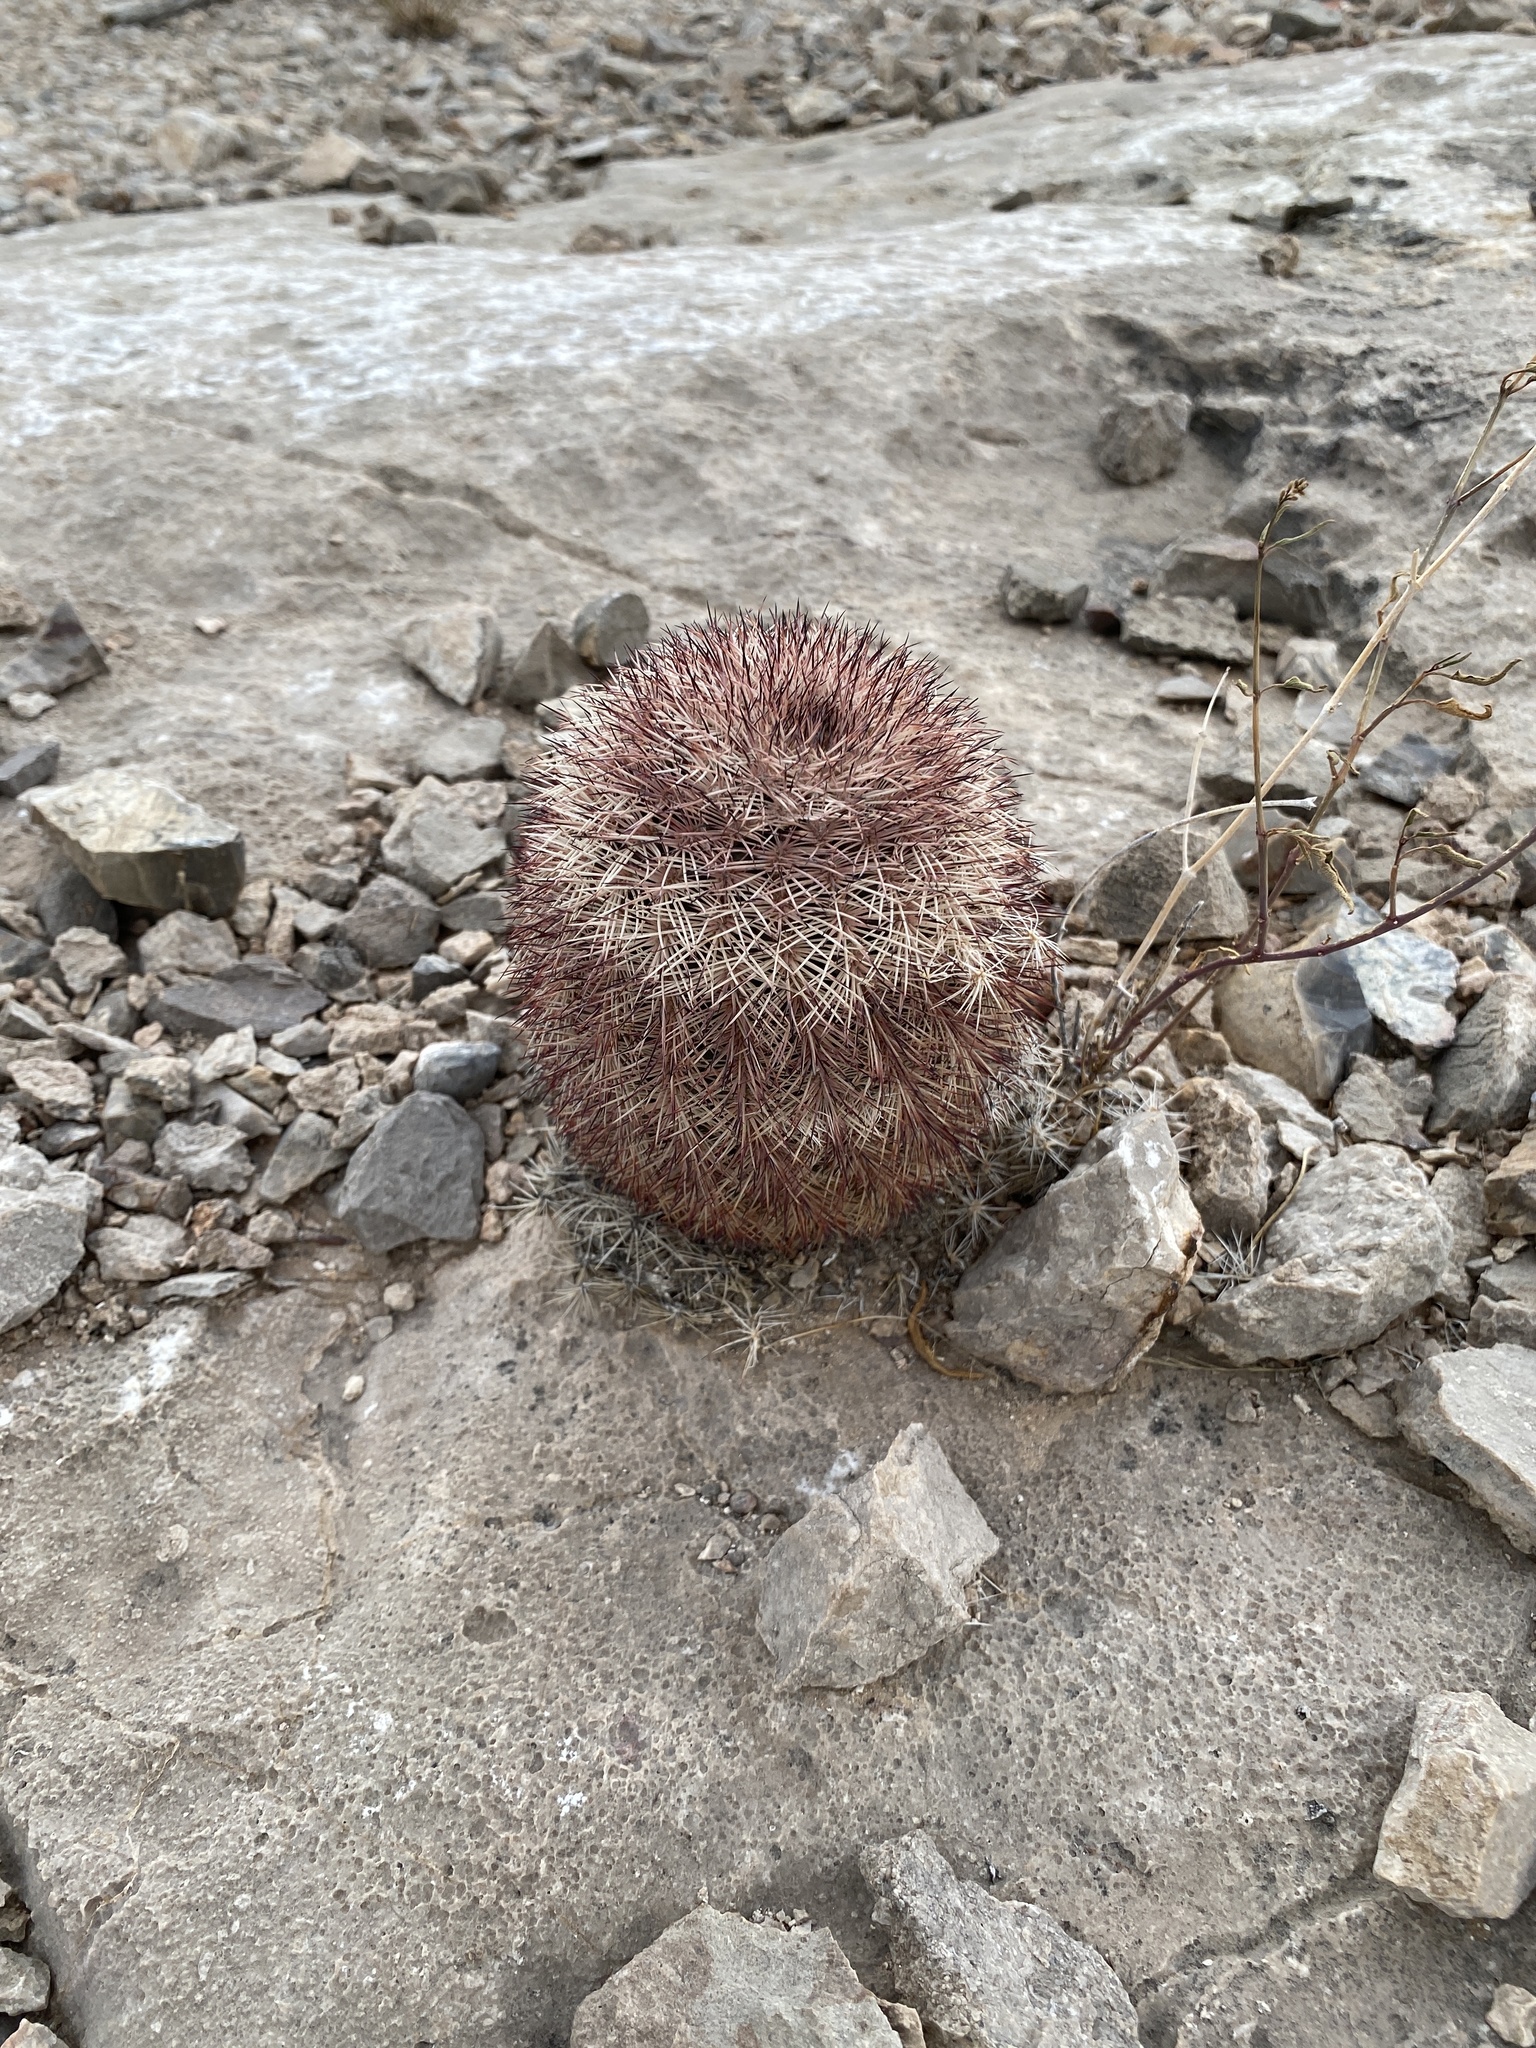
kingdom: Plantae
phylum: Tracheophyta
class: Magnoliopsida
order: Caryophyllales
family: Cactaceae
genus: Echinocereus
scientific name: Echinocereus dasyacanthus
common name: Spiny hedgehog cactus
